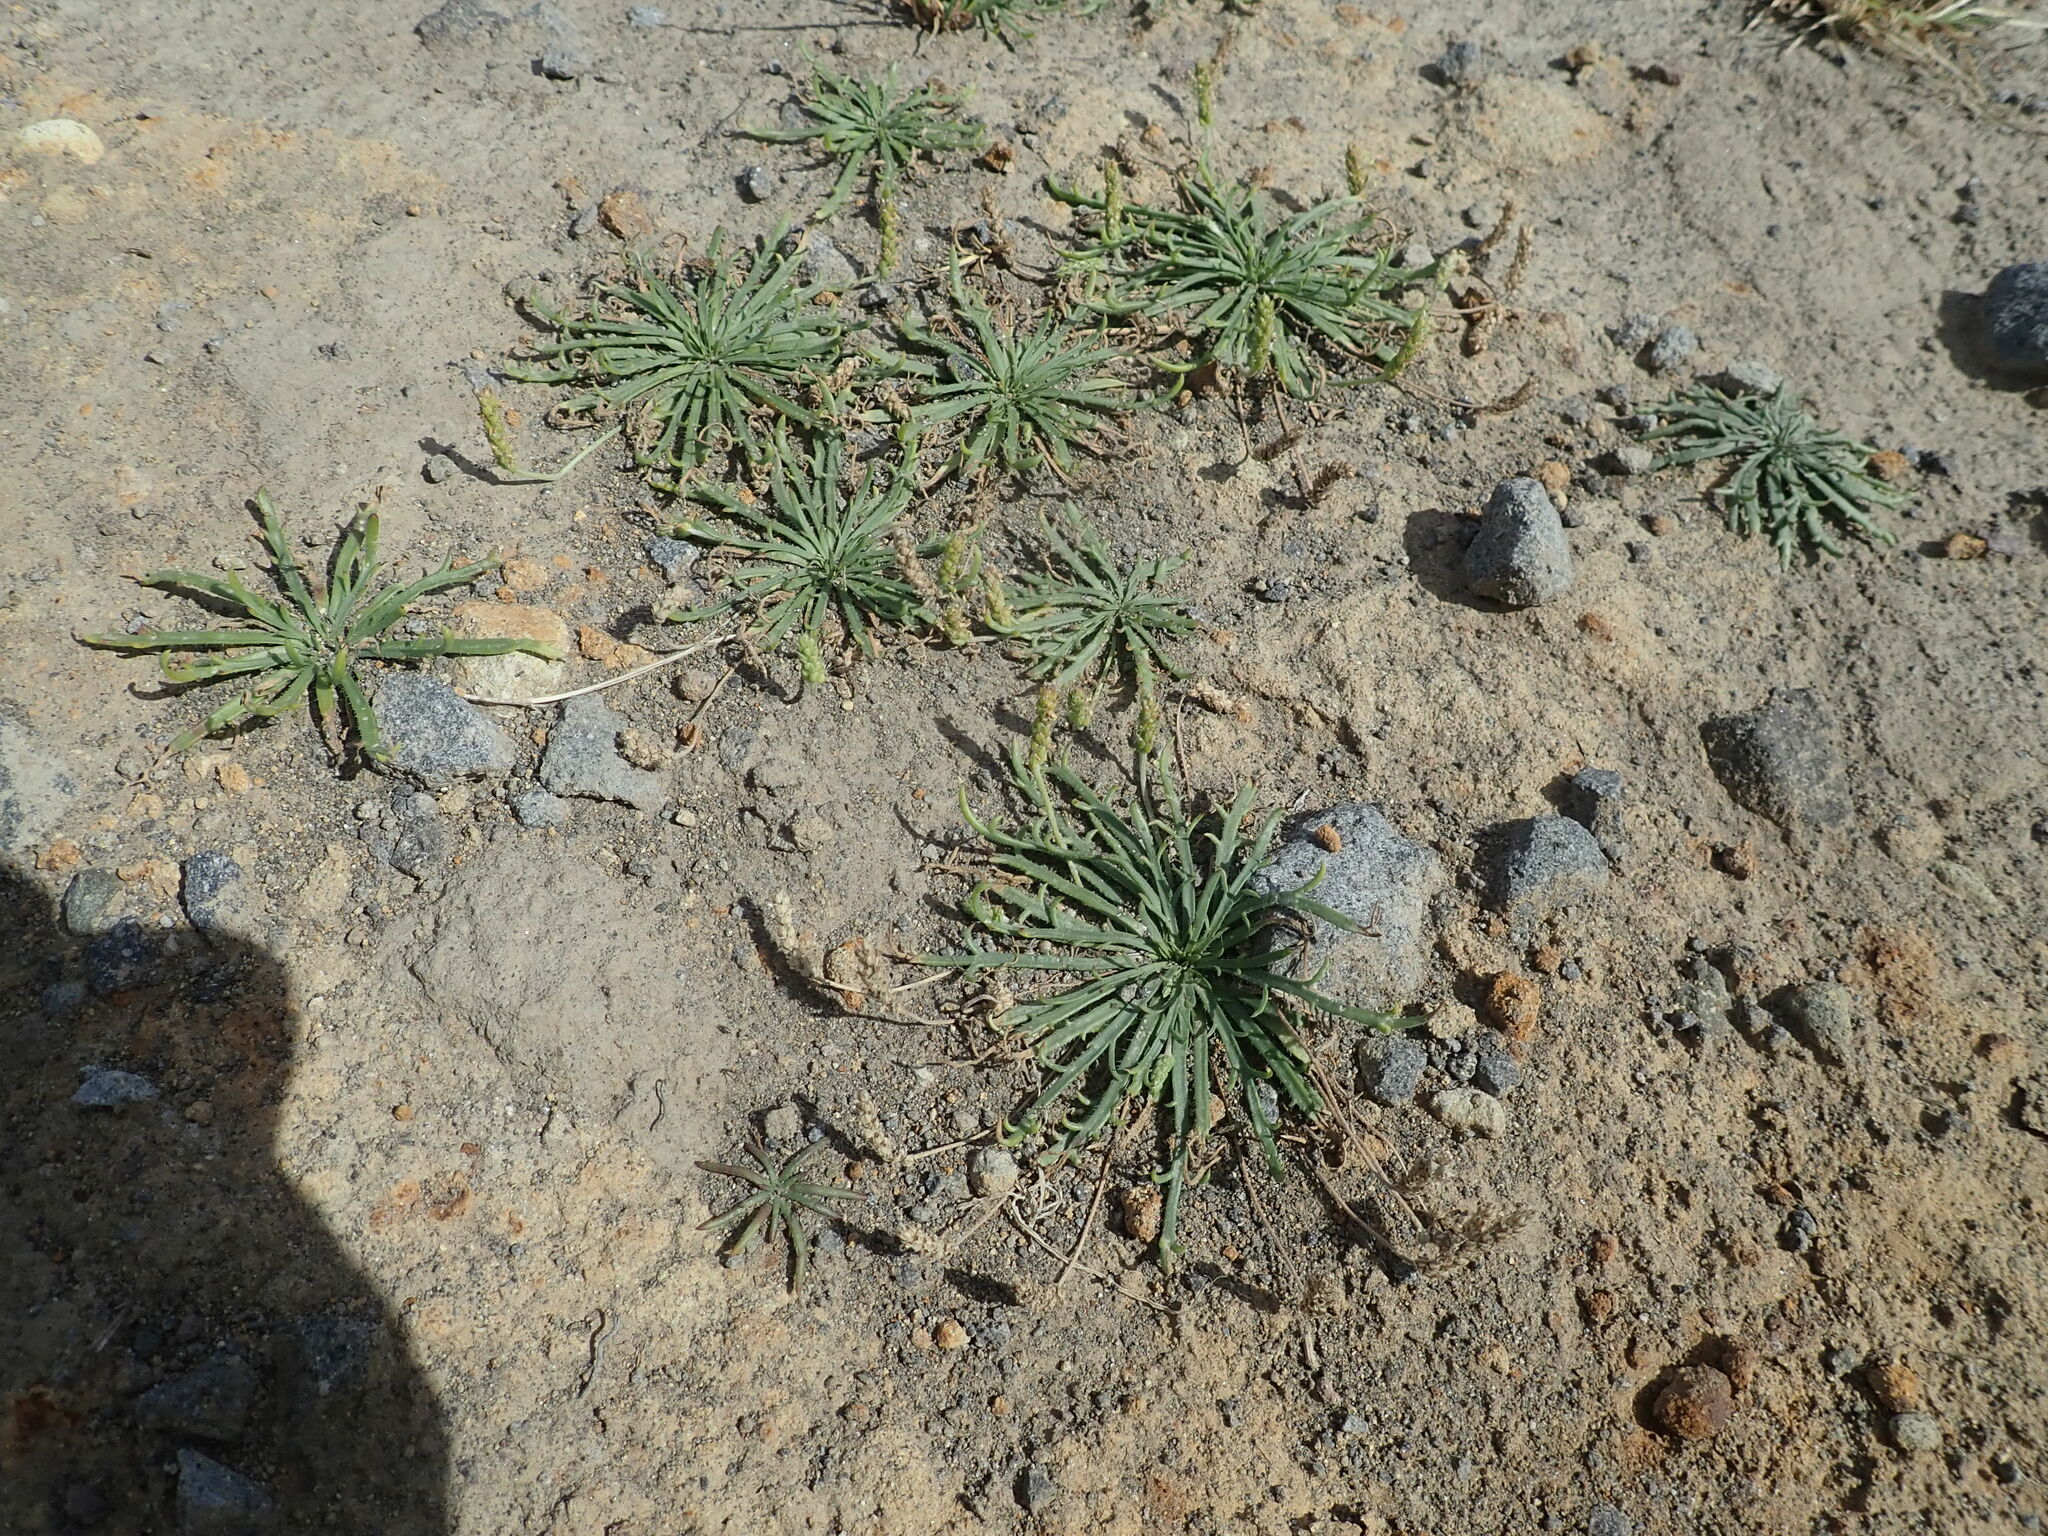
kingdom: Plantae
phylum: Tracheophyta
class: Magnoliopsida
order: Lamiales
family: Plantaginaceae
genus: Plantago
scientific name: Plantago coronopus
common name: Buck's-horn plantain
